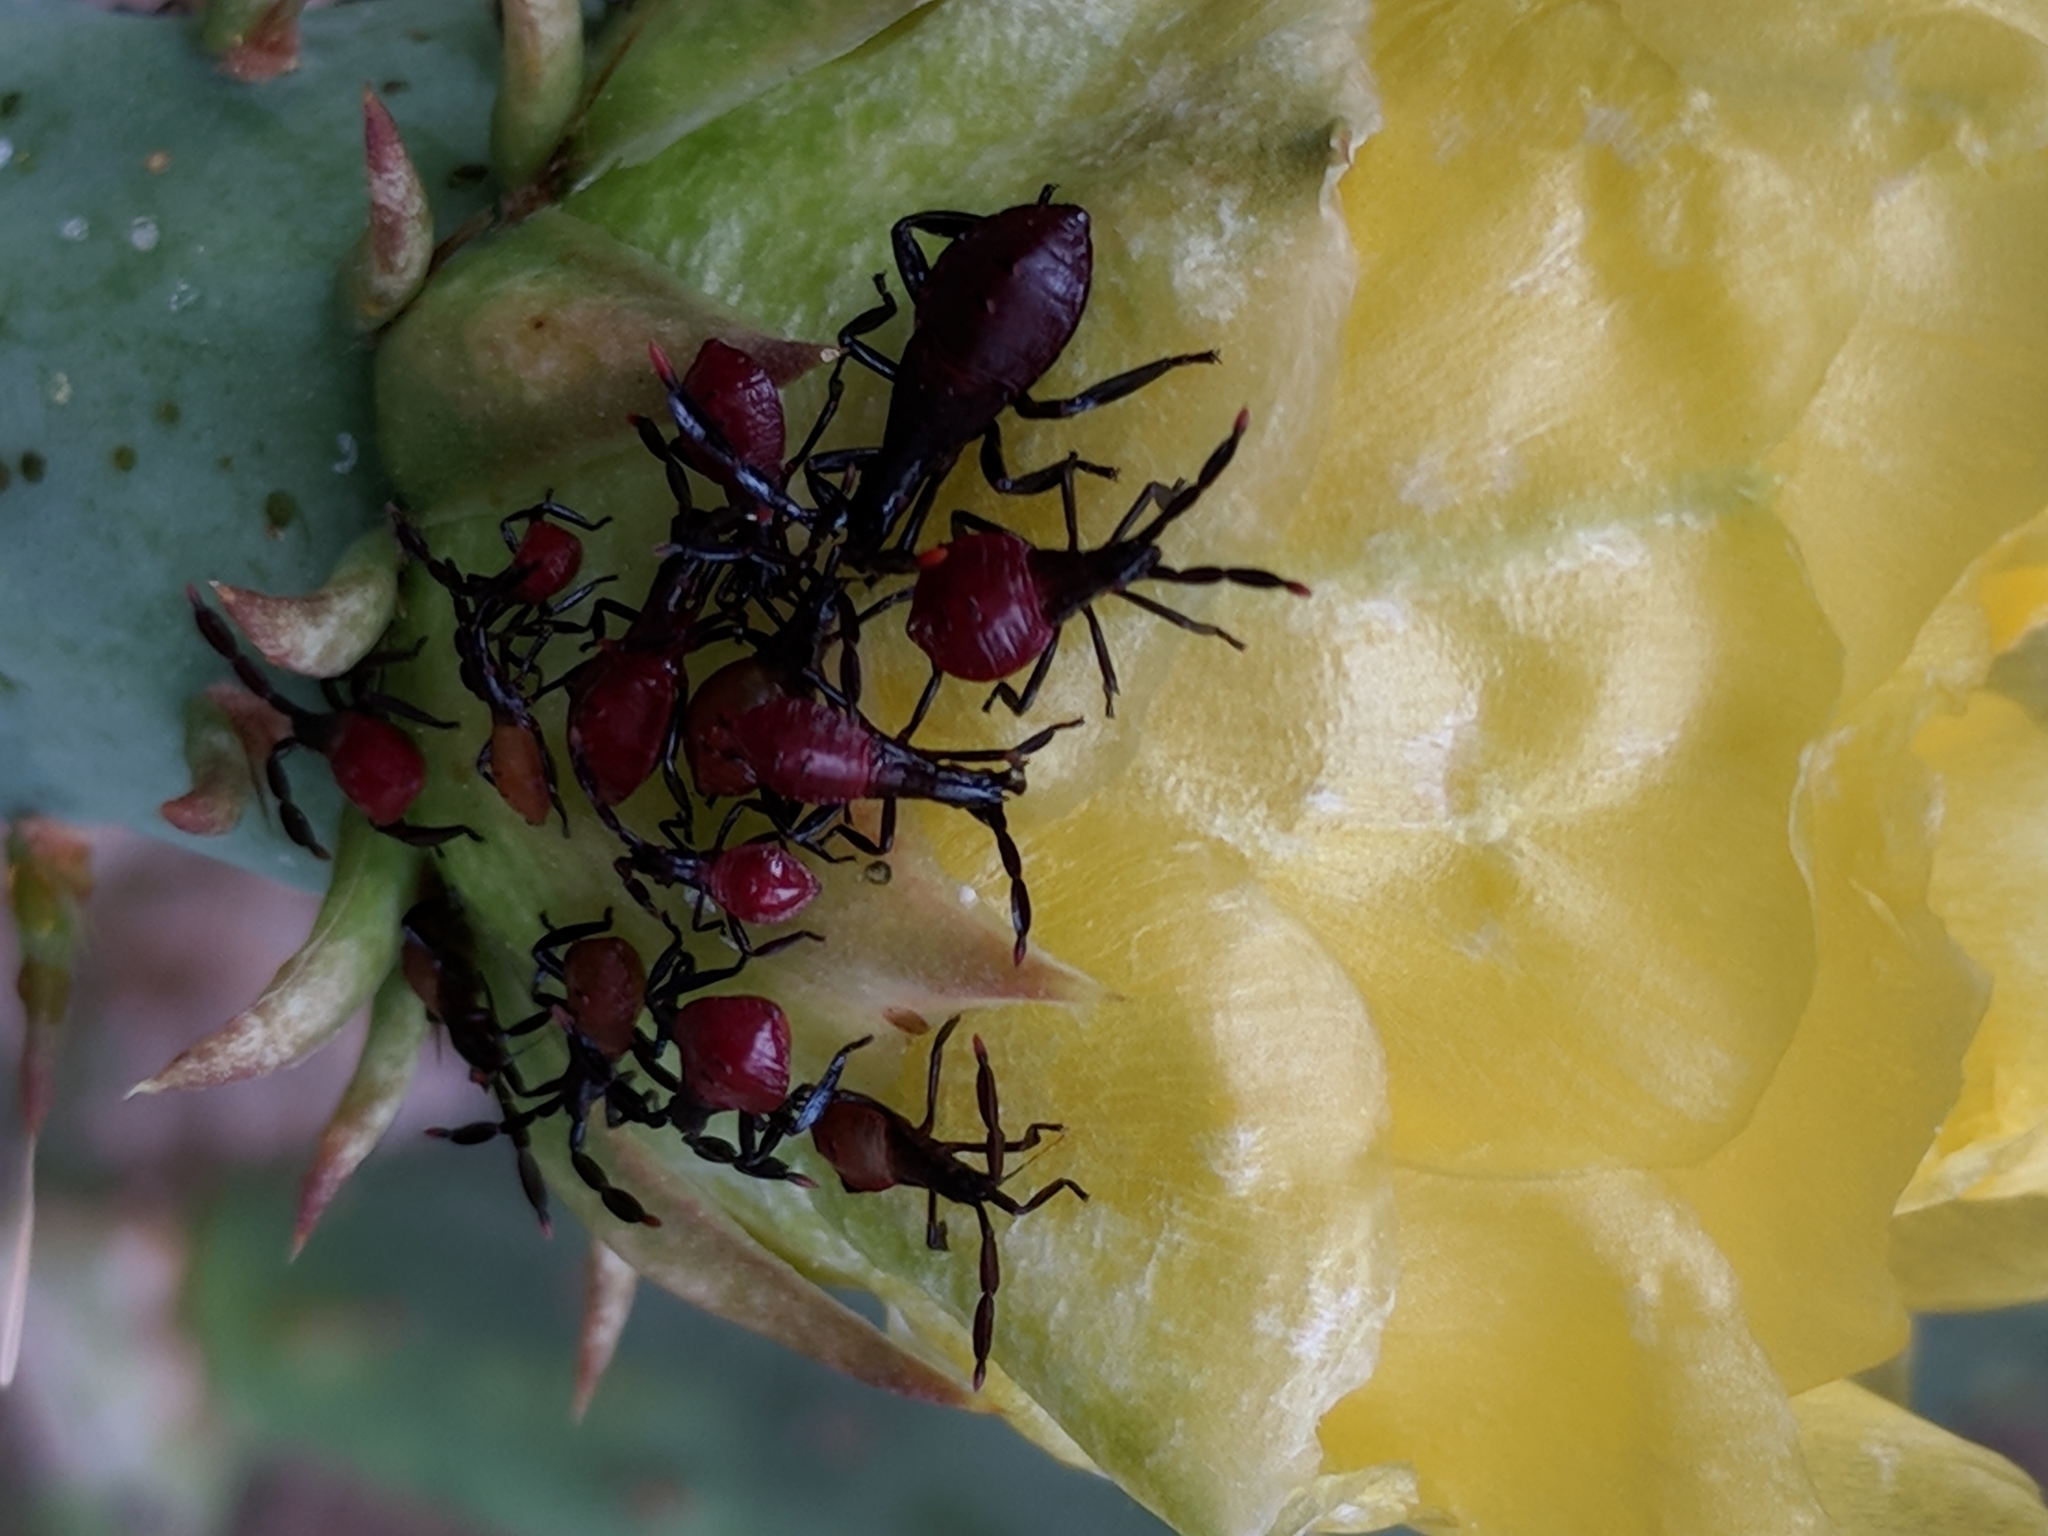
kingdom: Animalia
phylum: Arthropoda
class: Insecta
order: Hemiptera
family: Coreidae
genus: Chelinidea
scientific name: Chelinidea vittiger
